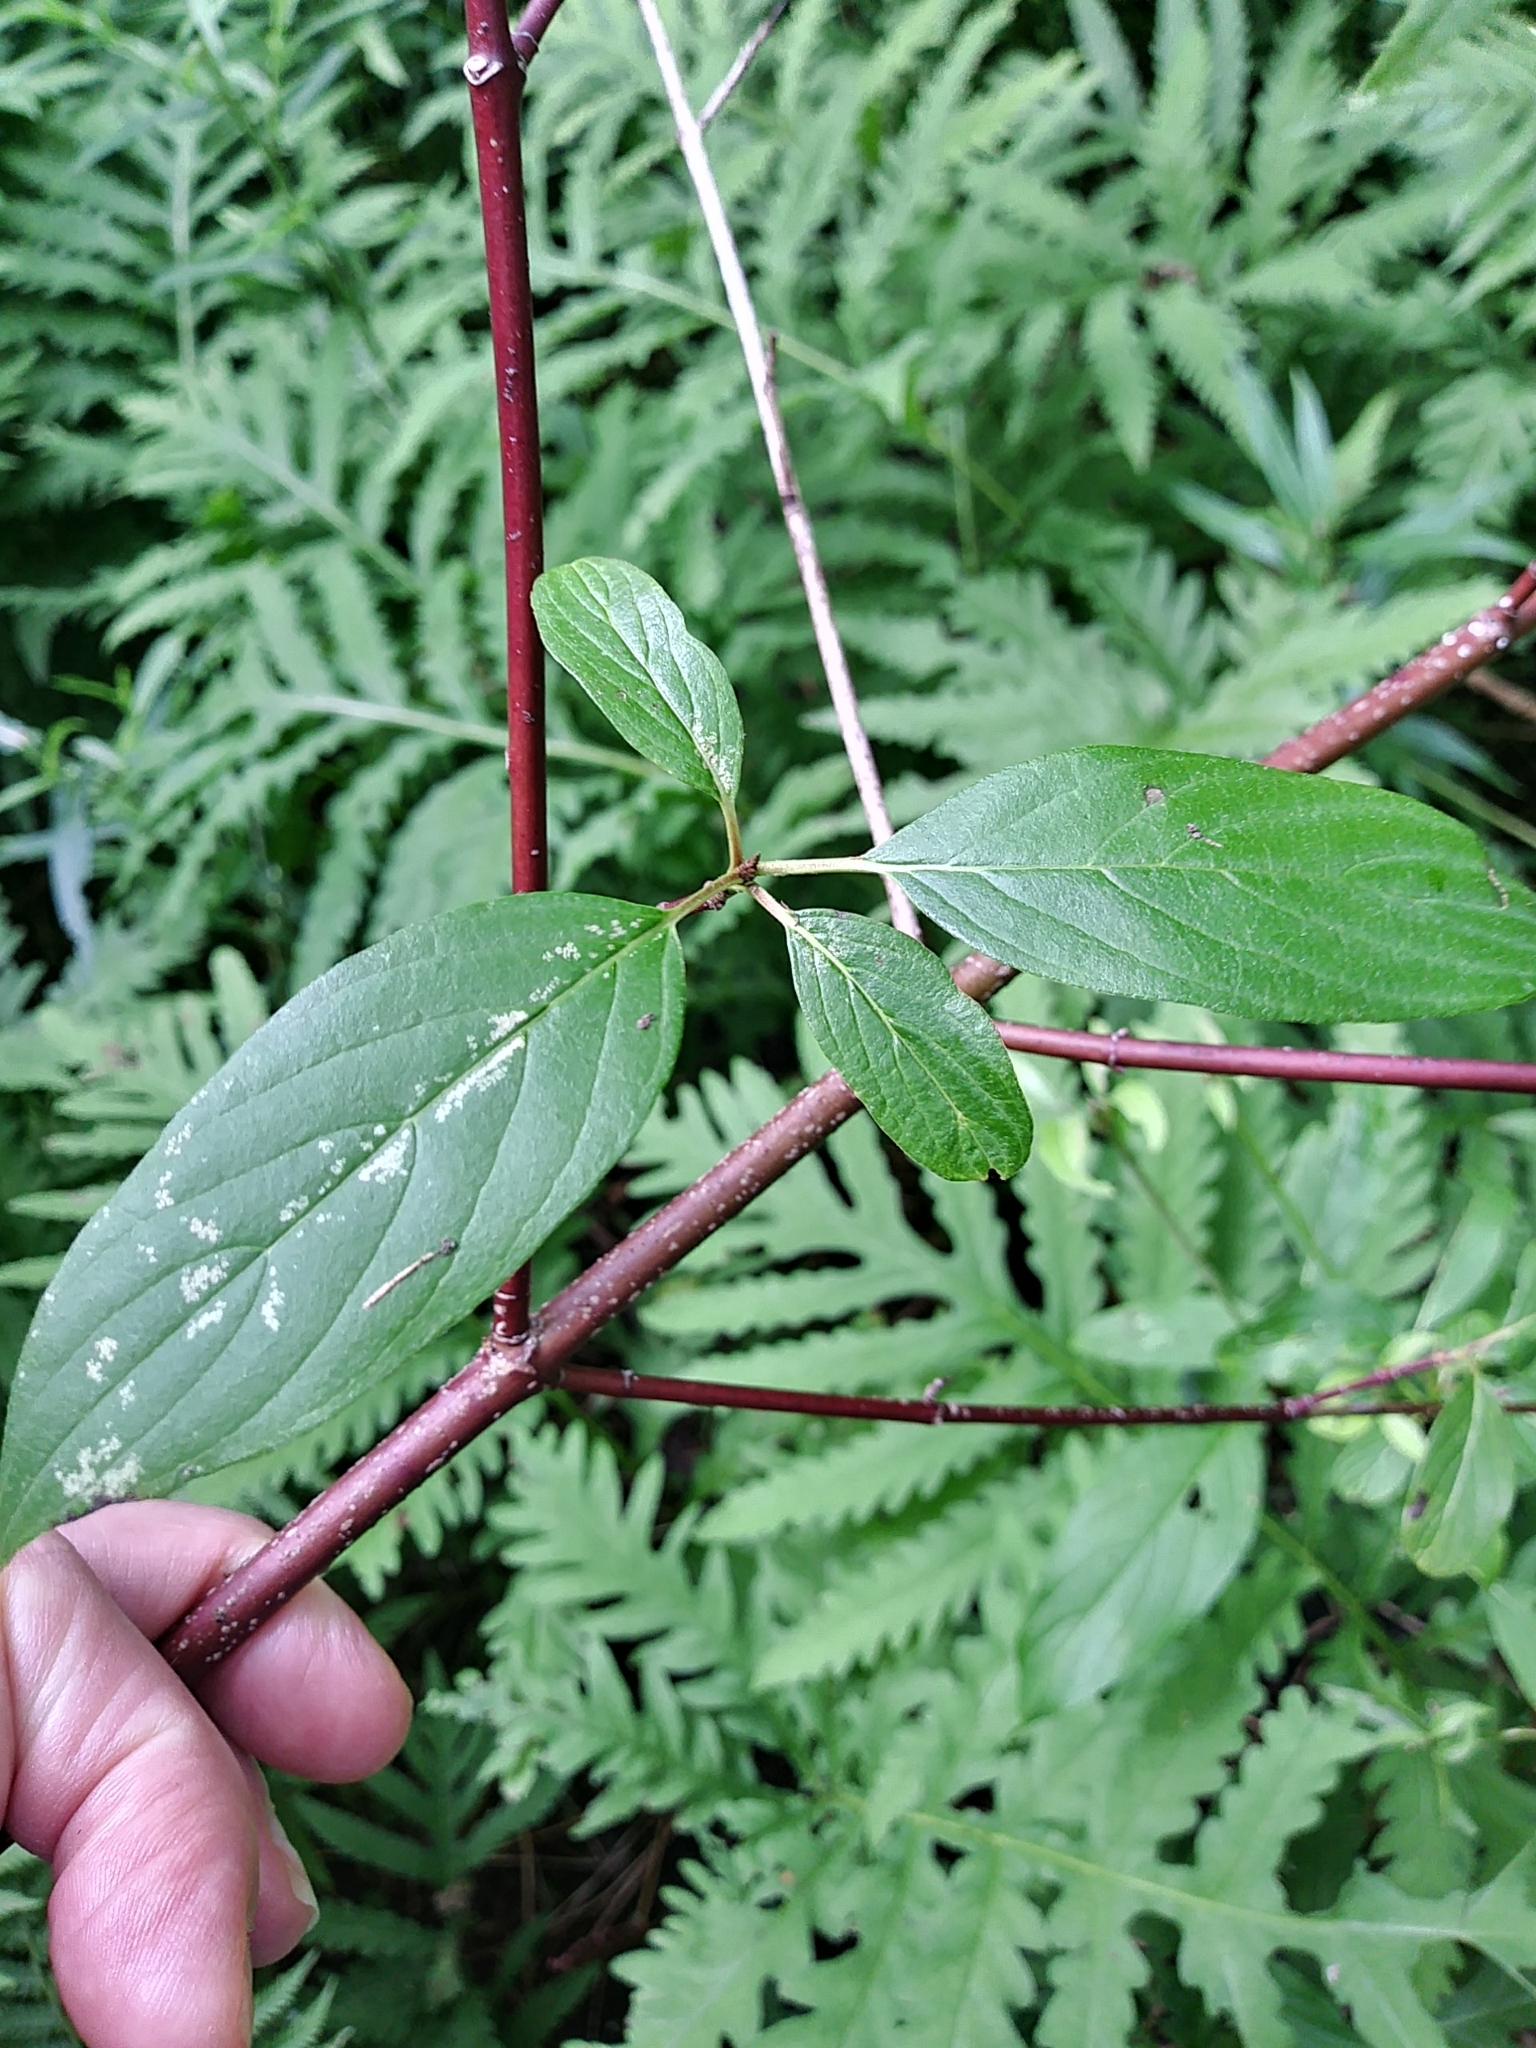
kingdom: Plantae
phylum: Tracheophyta
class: Magnoliopsida
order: Cornales
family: Cornaceae
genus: Cornus
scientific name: Cornus sericea
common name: Red-osier dogwood
